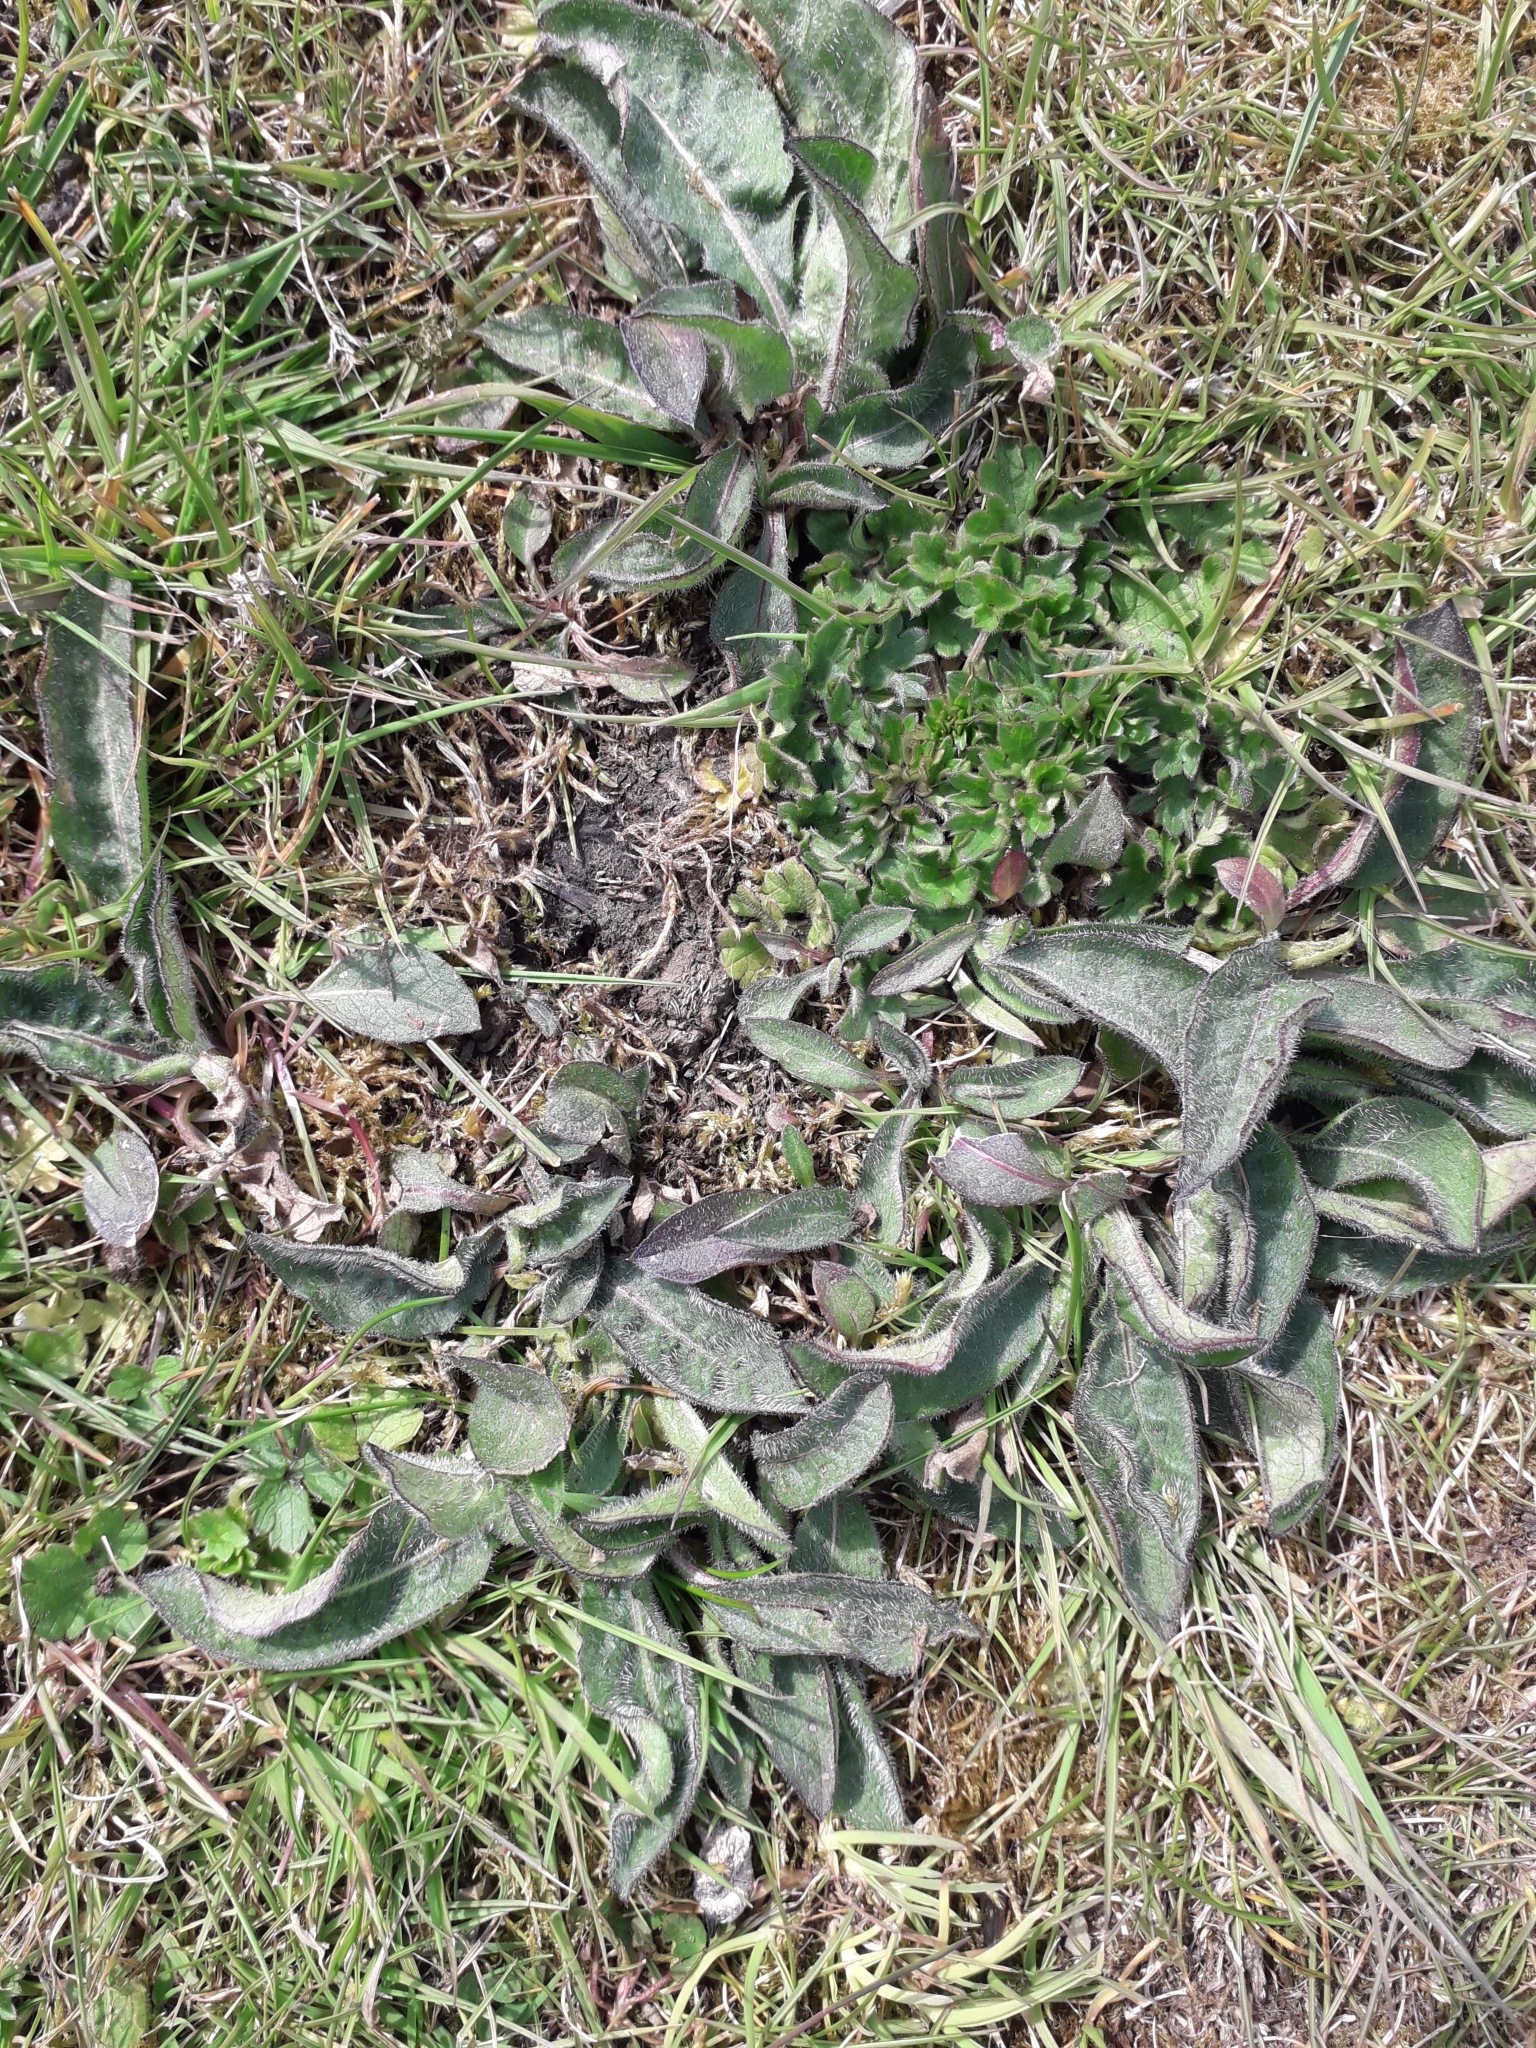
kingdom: Plantae
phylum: Tracheophyta
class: Magnoliopsida
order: Asterales
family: Asteraceae
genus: Centaurea
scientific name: Centaurea nigra
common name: Lesser knapweed
